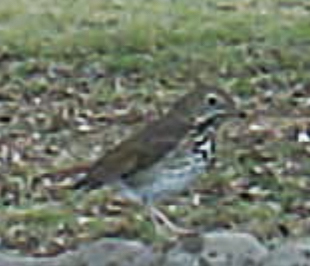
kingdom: Animalia
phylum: Chordata
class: Aves
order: Passeriformes
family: Turdidae
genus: Catharus
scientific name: Catharus guttatus
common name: Hermit thrush
